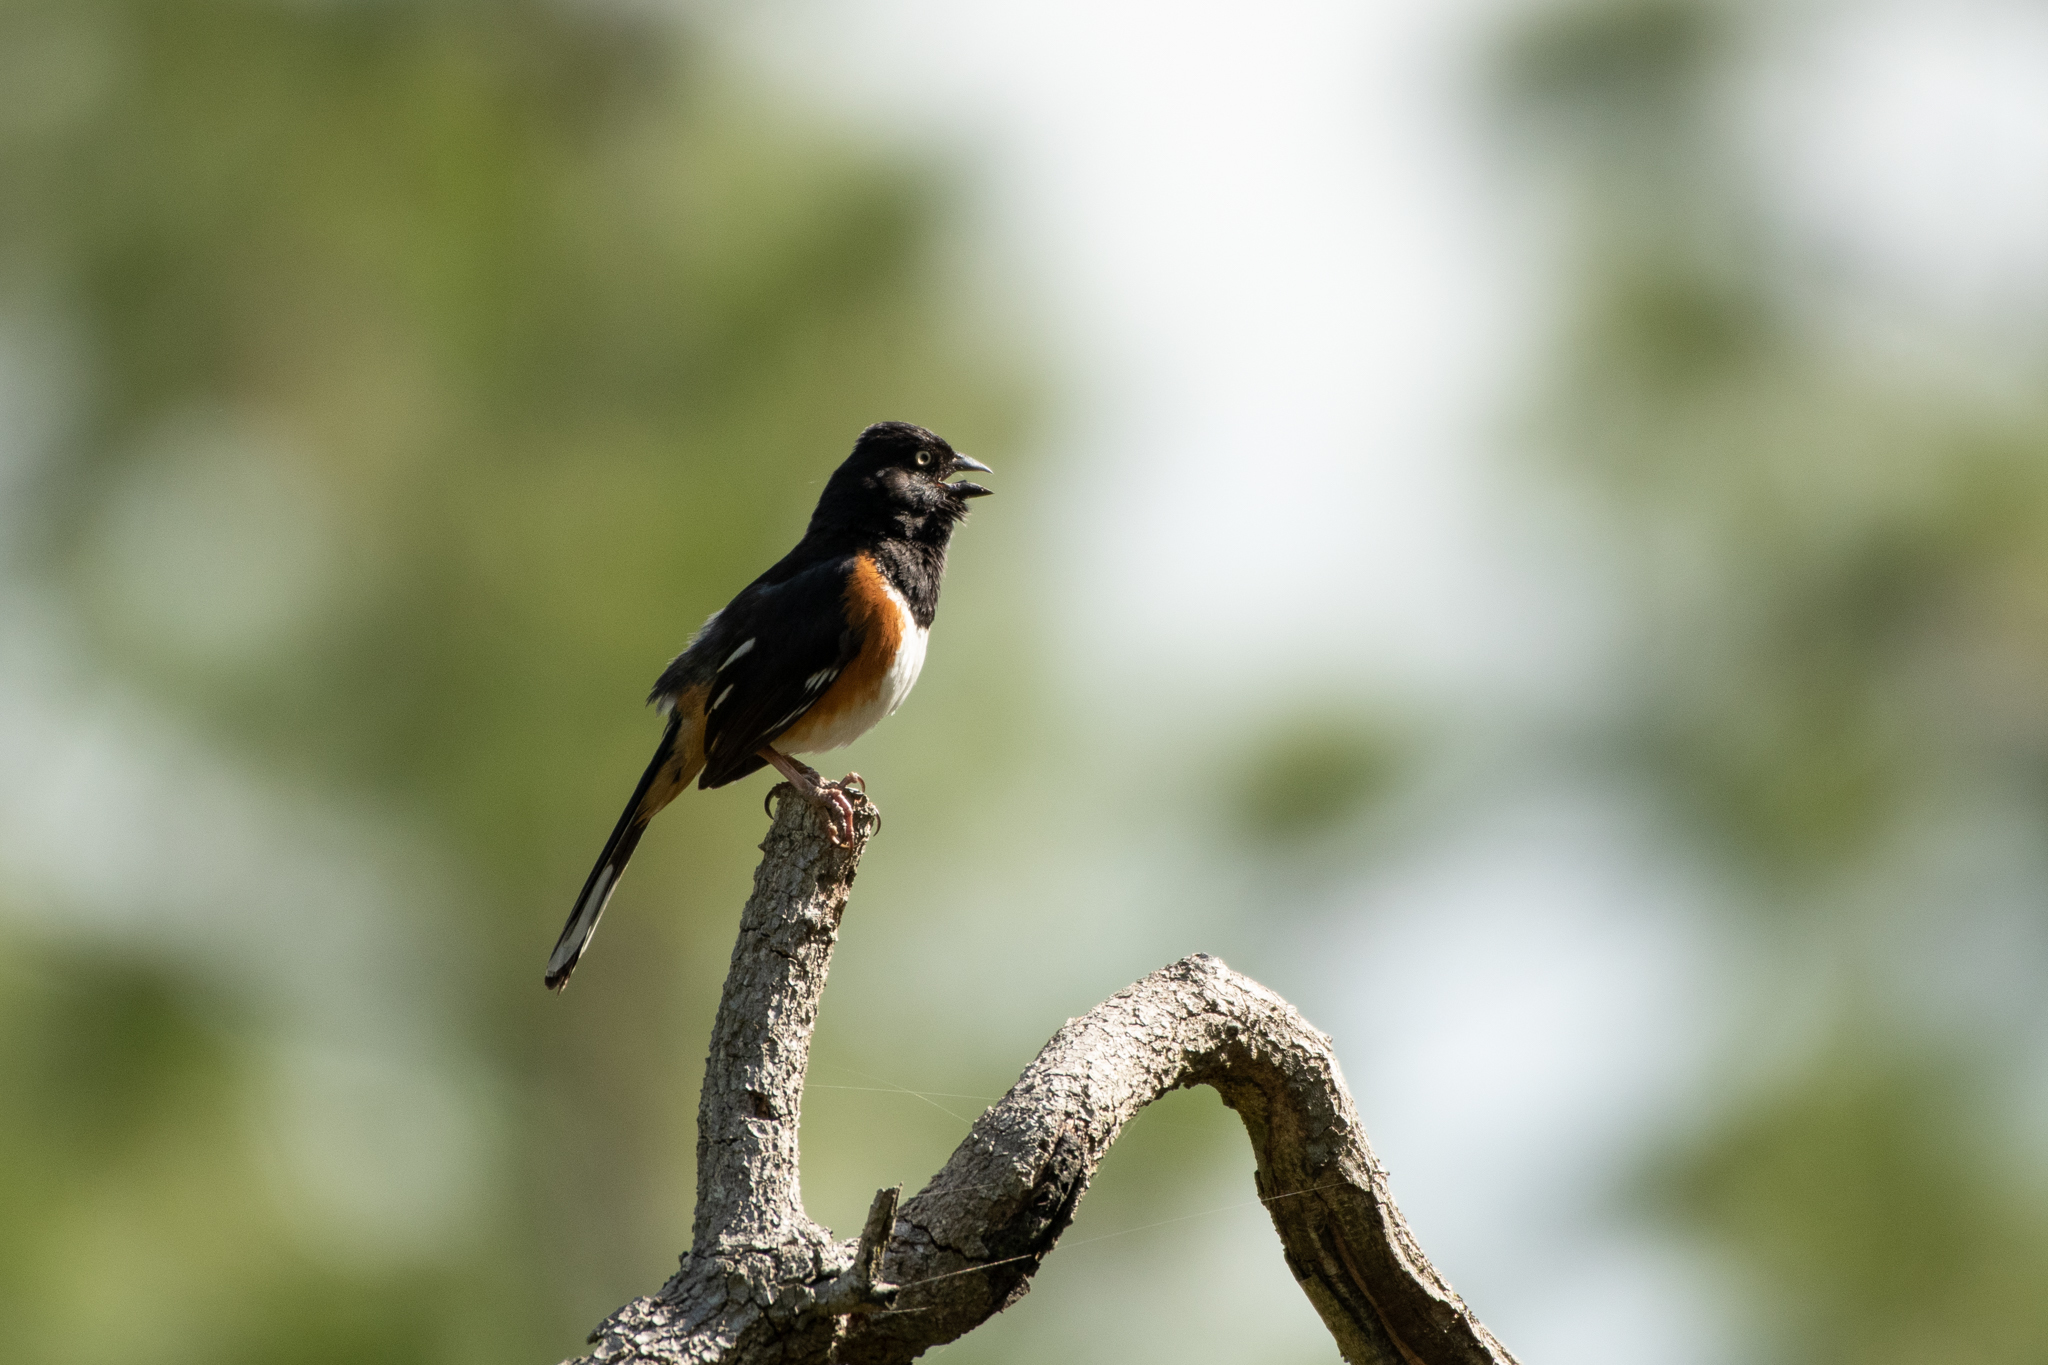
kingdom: Animalia
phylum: Chordata
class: Aves
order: Passeriformes
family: Passerellidae
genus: Pipilo
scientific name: Pipilo erythrophthalmus
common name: Eastern towhee
